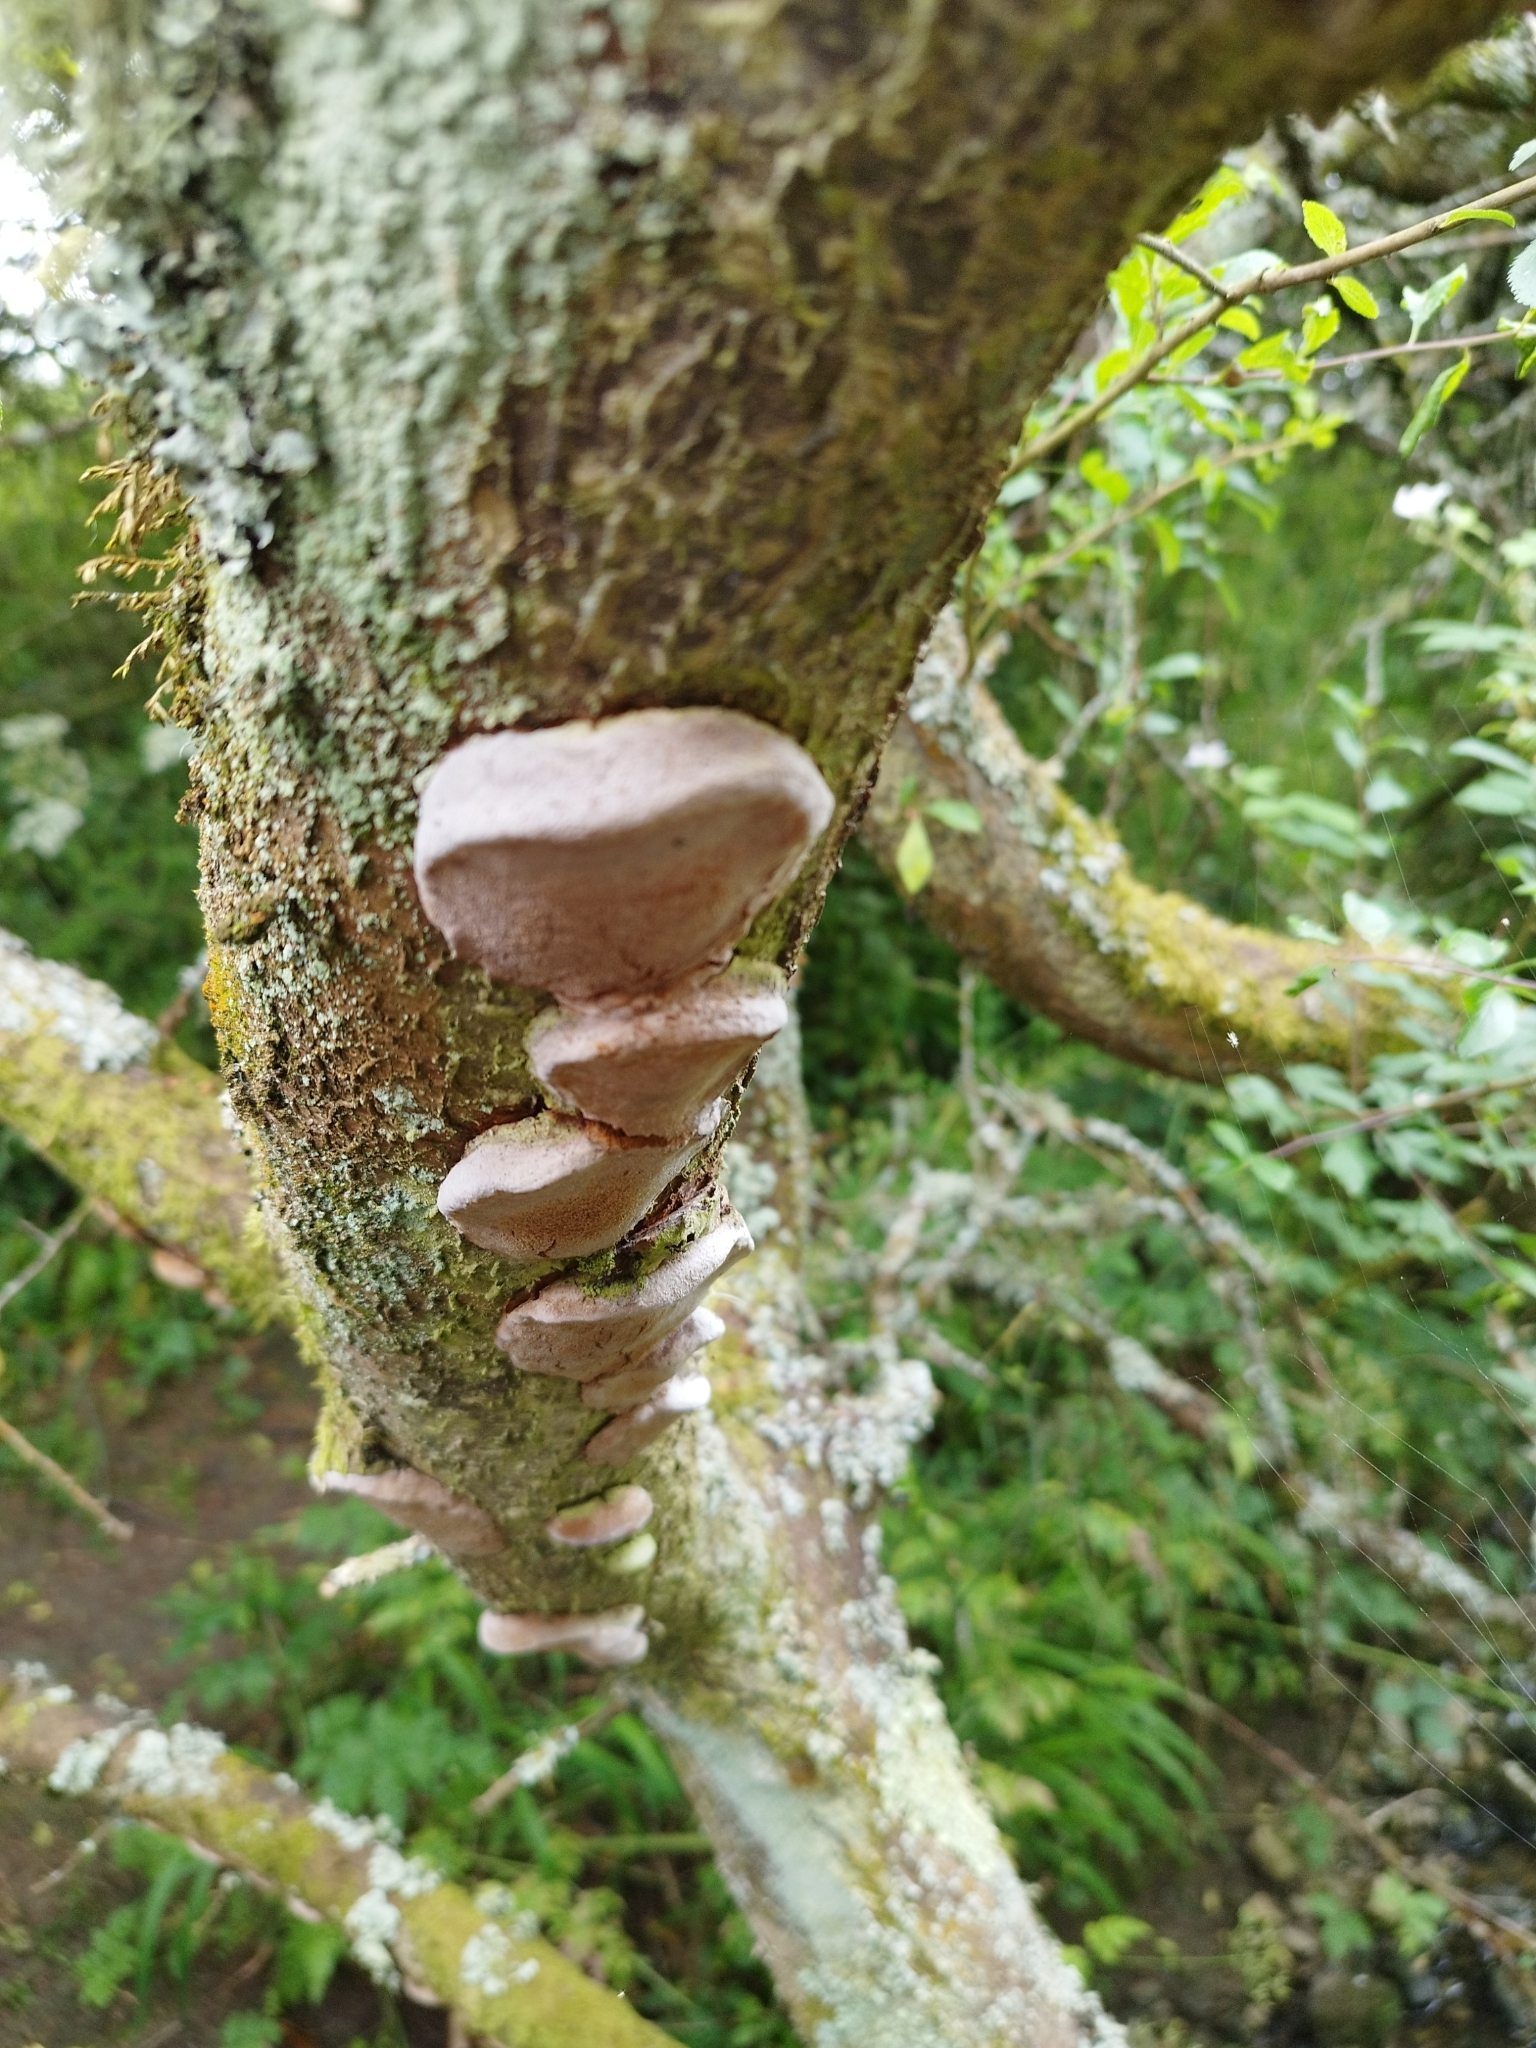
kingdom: Fungi
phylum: Basidiomycota
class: Agaricomycetes
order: Hymenochaetales
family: Hymenochaetaceae
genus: Phellinus
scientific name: Phellinus pomaceus
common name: Cushion bracket
